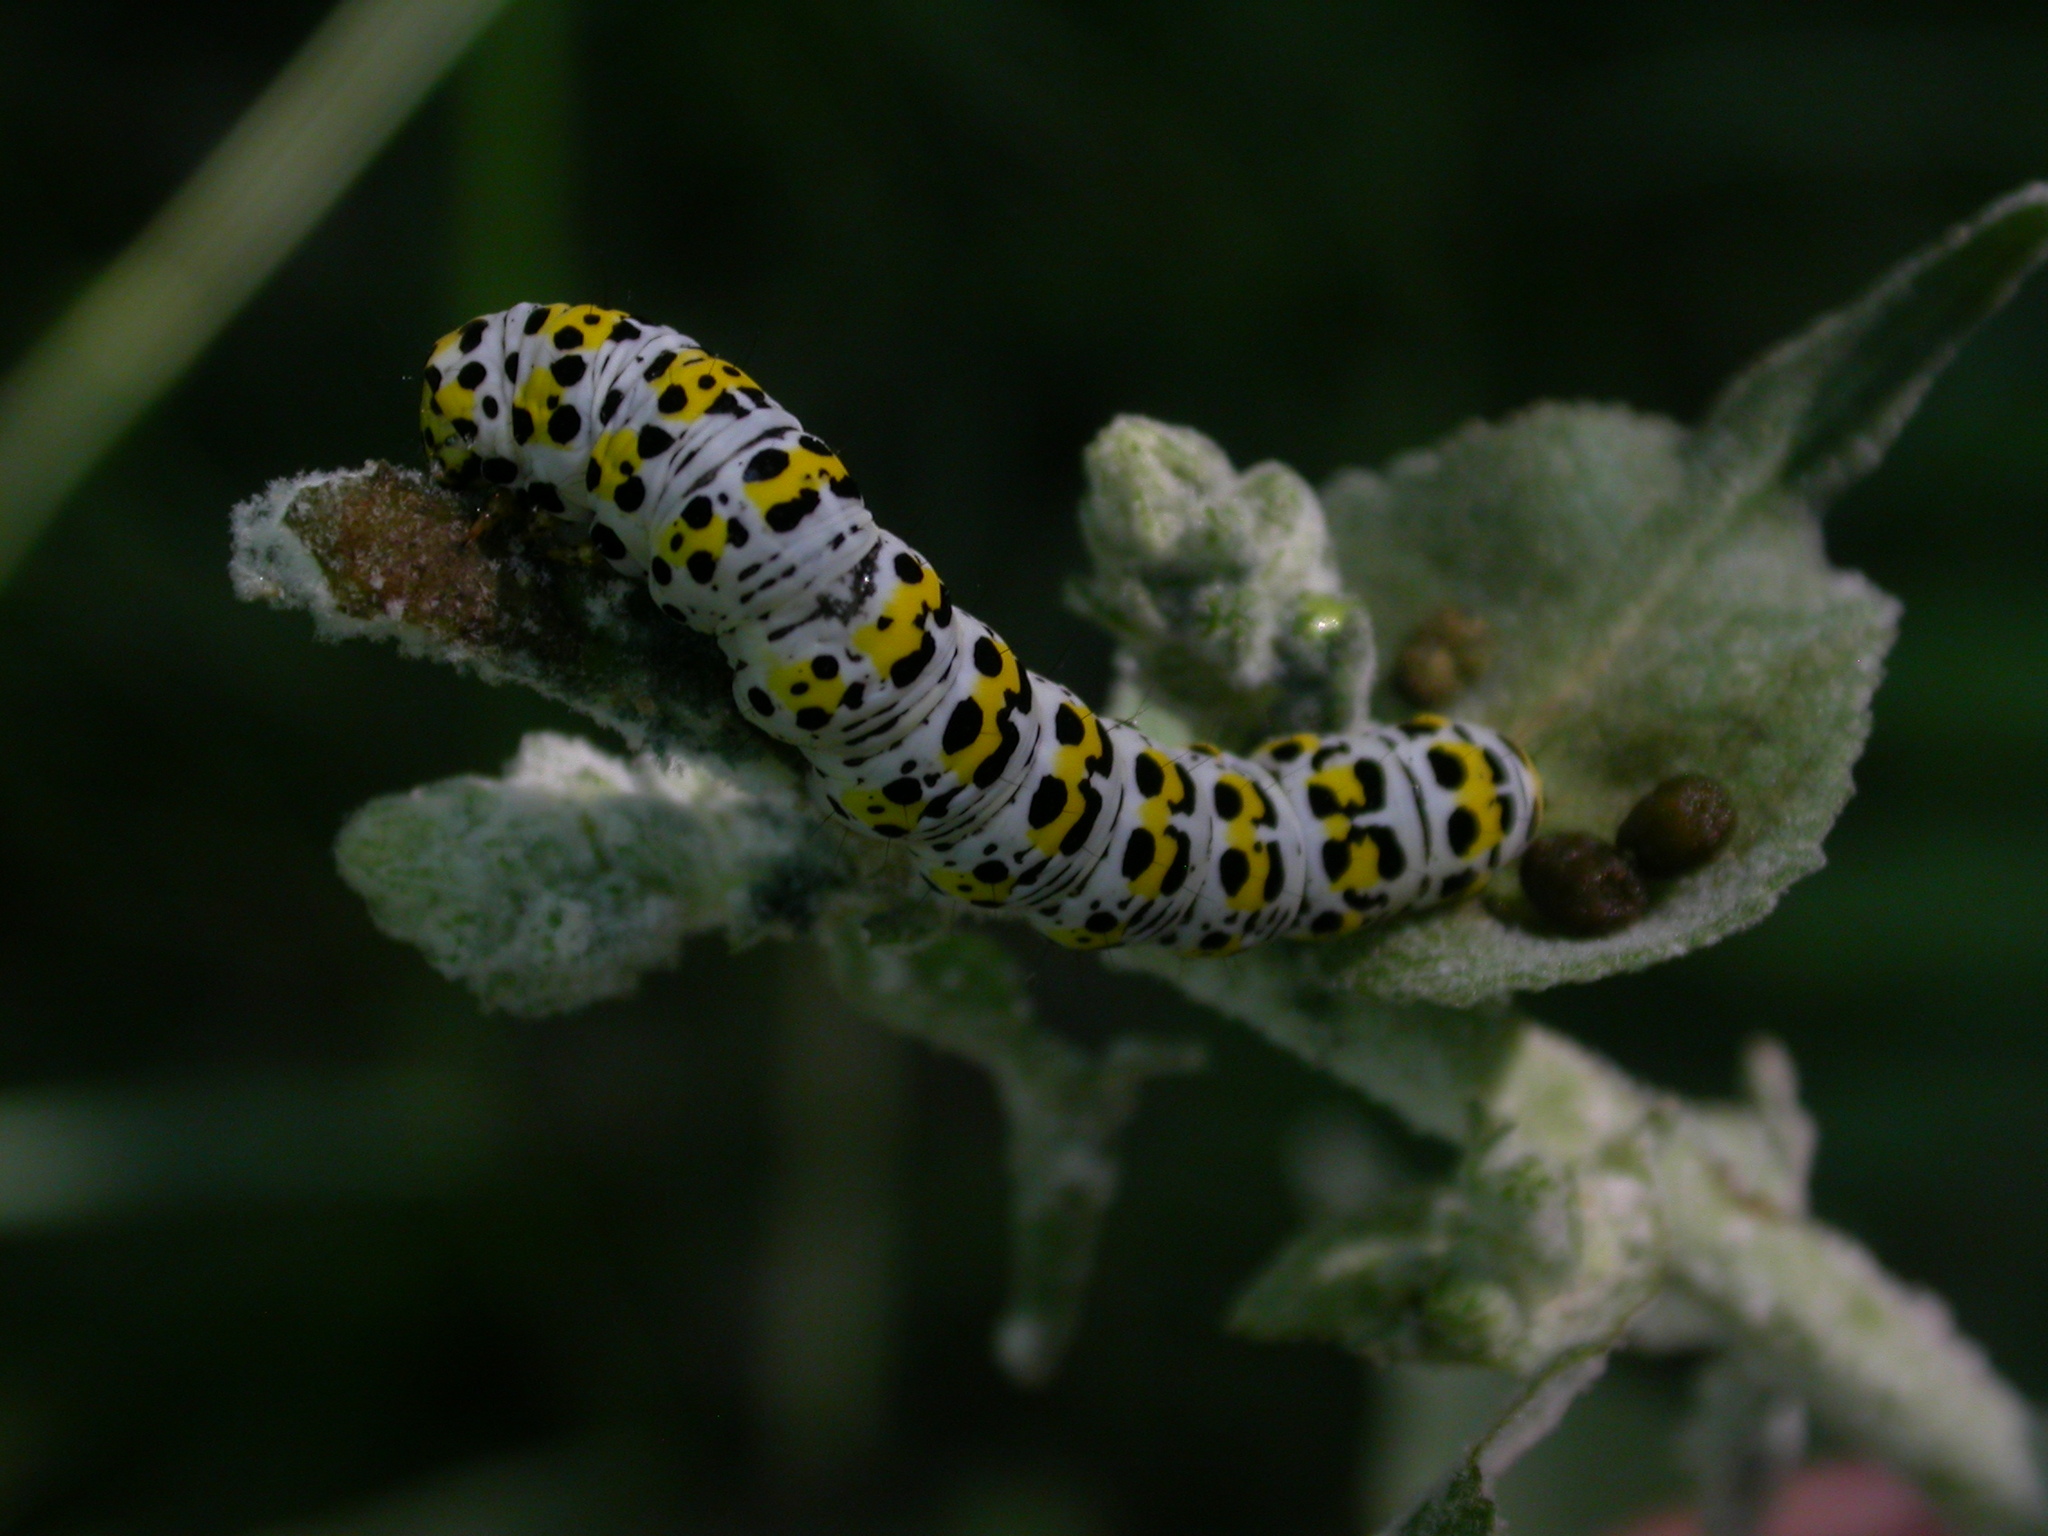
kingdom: Animalia
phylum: Arthropoda
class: Insecta
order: Lepidoptera
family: Noctuidae
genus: Cucullia
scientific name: Cucullia verbasci
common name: Mullein
